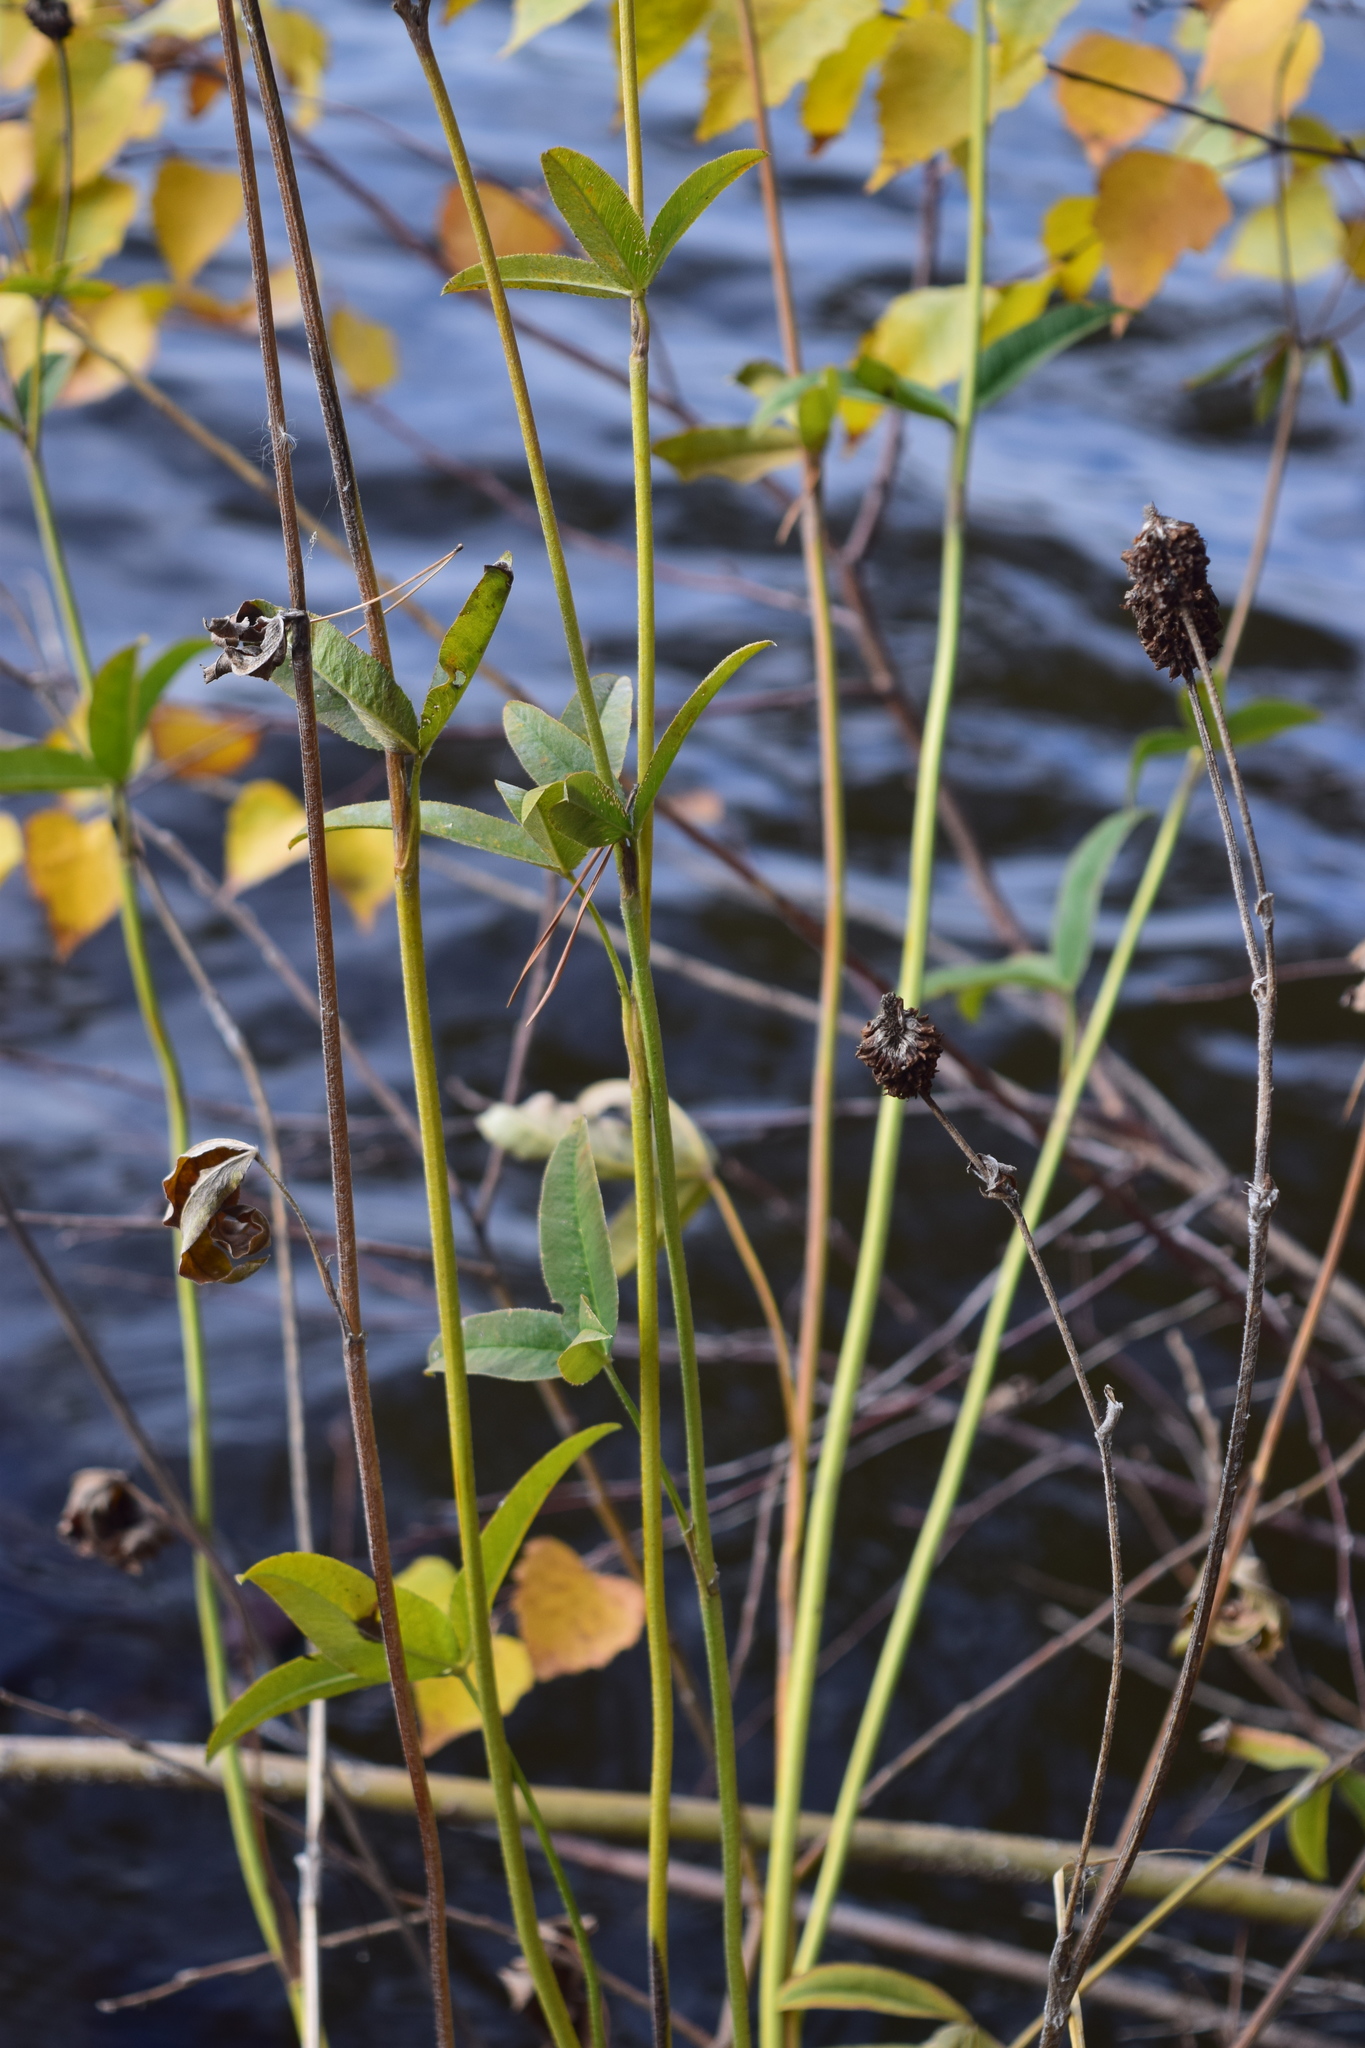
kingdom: Plantae
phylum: Tracheophyta
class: Magnoliopsida
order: Fabales
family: Fabaceae
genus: Trifolium
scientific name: Trifolium montanum
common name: Mountain clover
